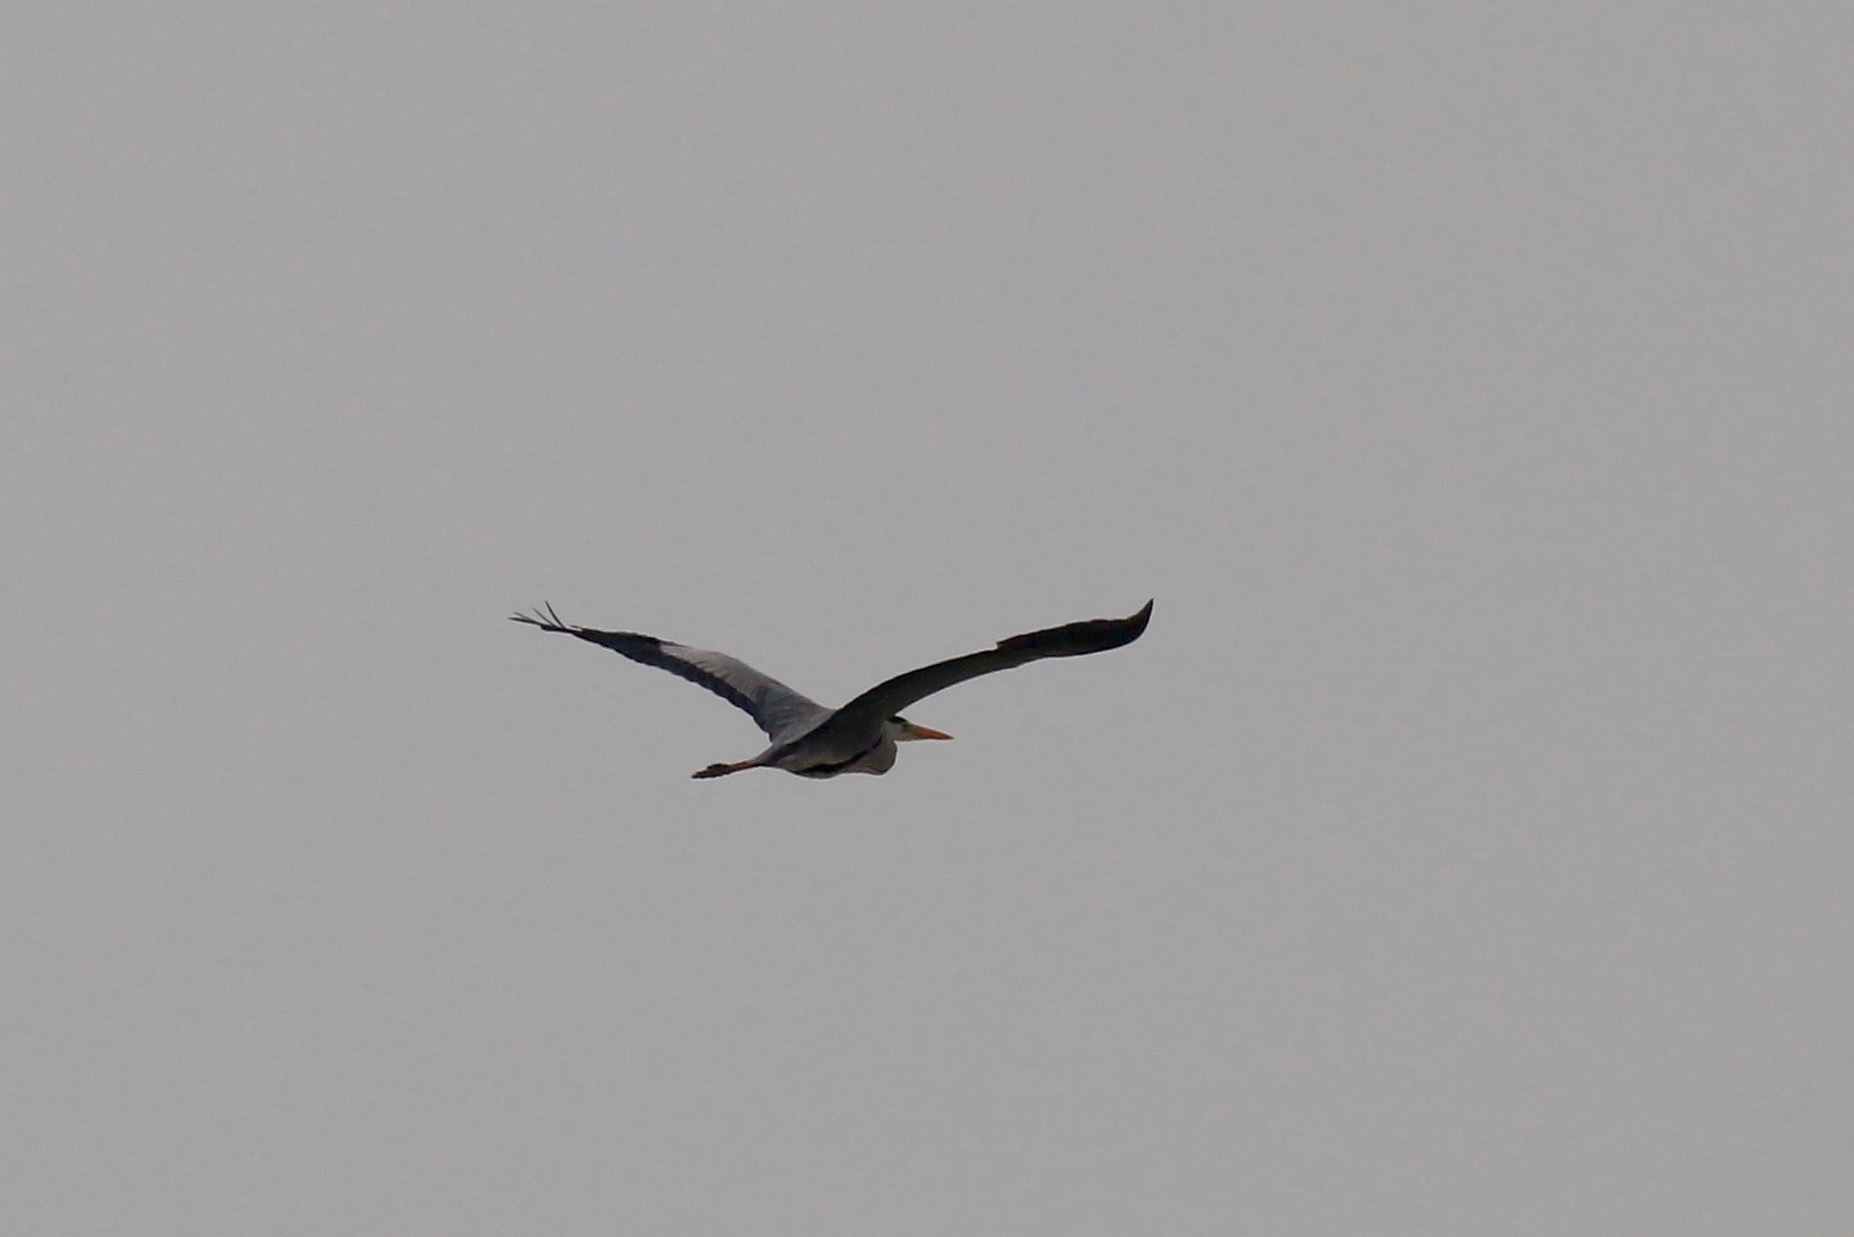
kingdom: Animalia
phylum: Chordata
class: Aves
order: Pelecaniformes
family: Ardeidae
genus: Ardea
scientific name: Ardea cinerea
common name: Grey heron
